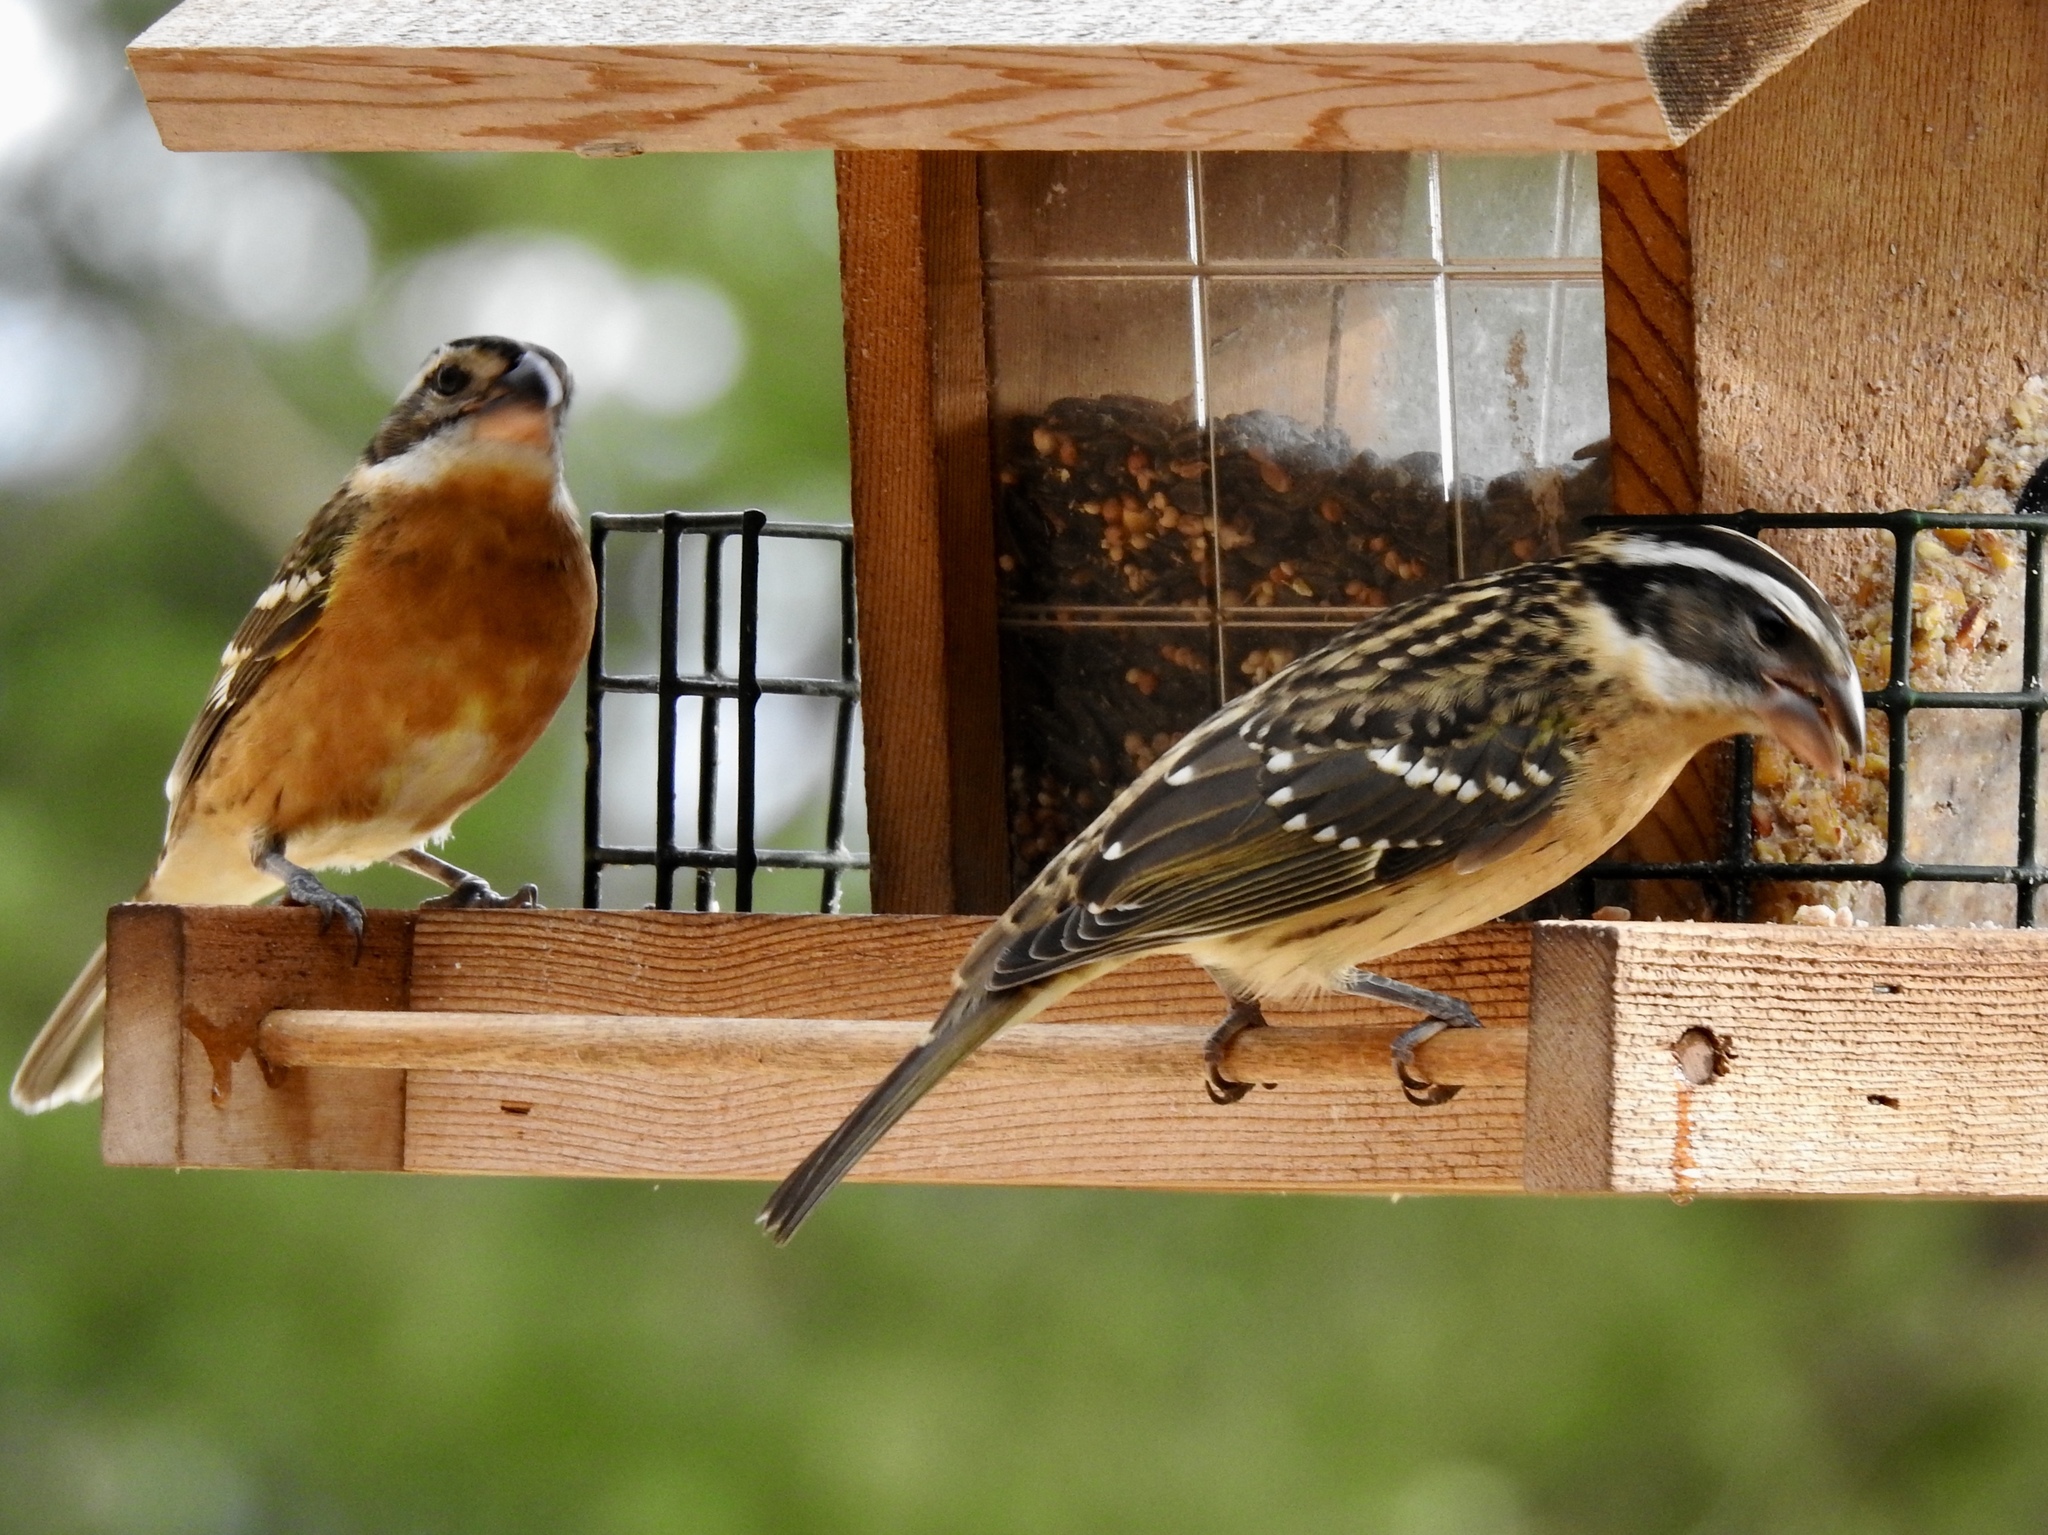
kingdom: Animalia
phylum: Chordata
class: Aves
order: Passeriformes
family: Cardinalidae
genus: Pheucticus
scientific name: Pheucticus melanocephalus
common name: Black-headed grosbeak
